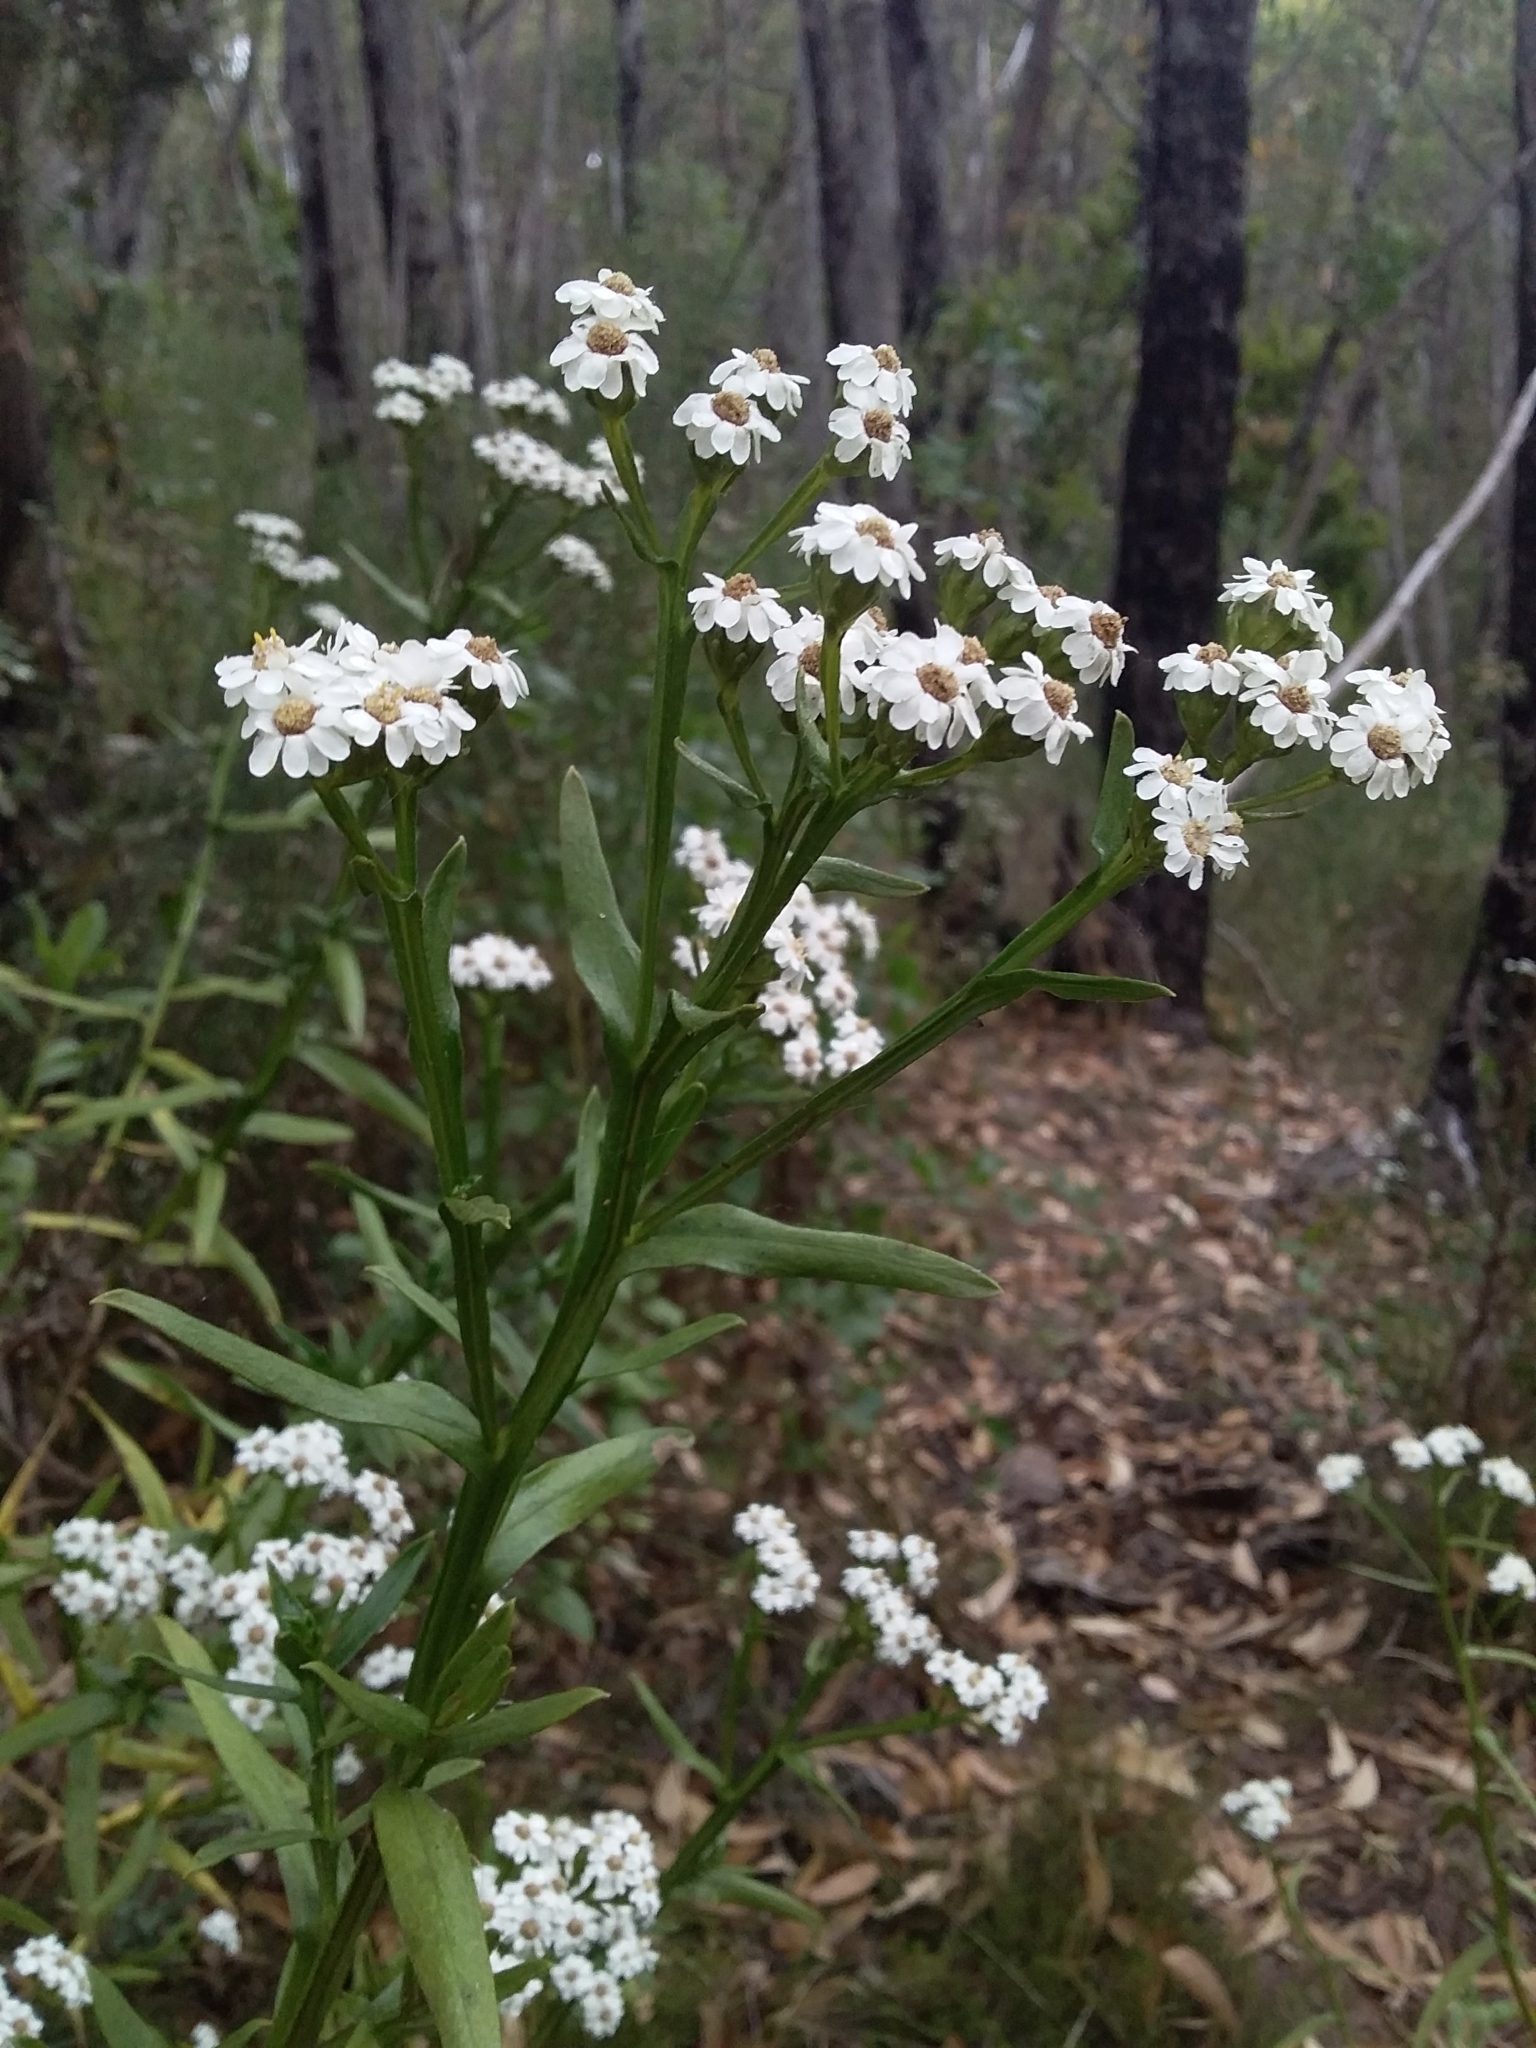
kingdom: Plantae
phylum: Tracheophyta
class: Magnoliopsida
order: Asterales
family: Asteraceae
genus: Ixodia
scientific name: Ixodia achillaeoides
